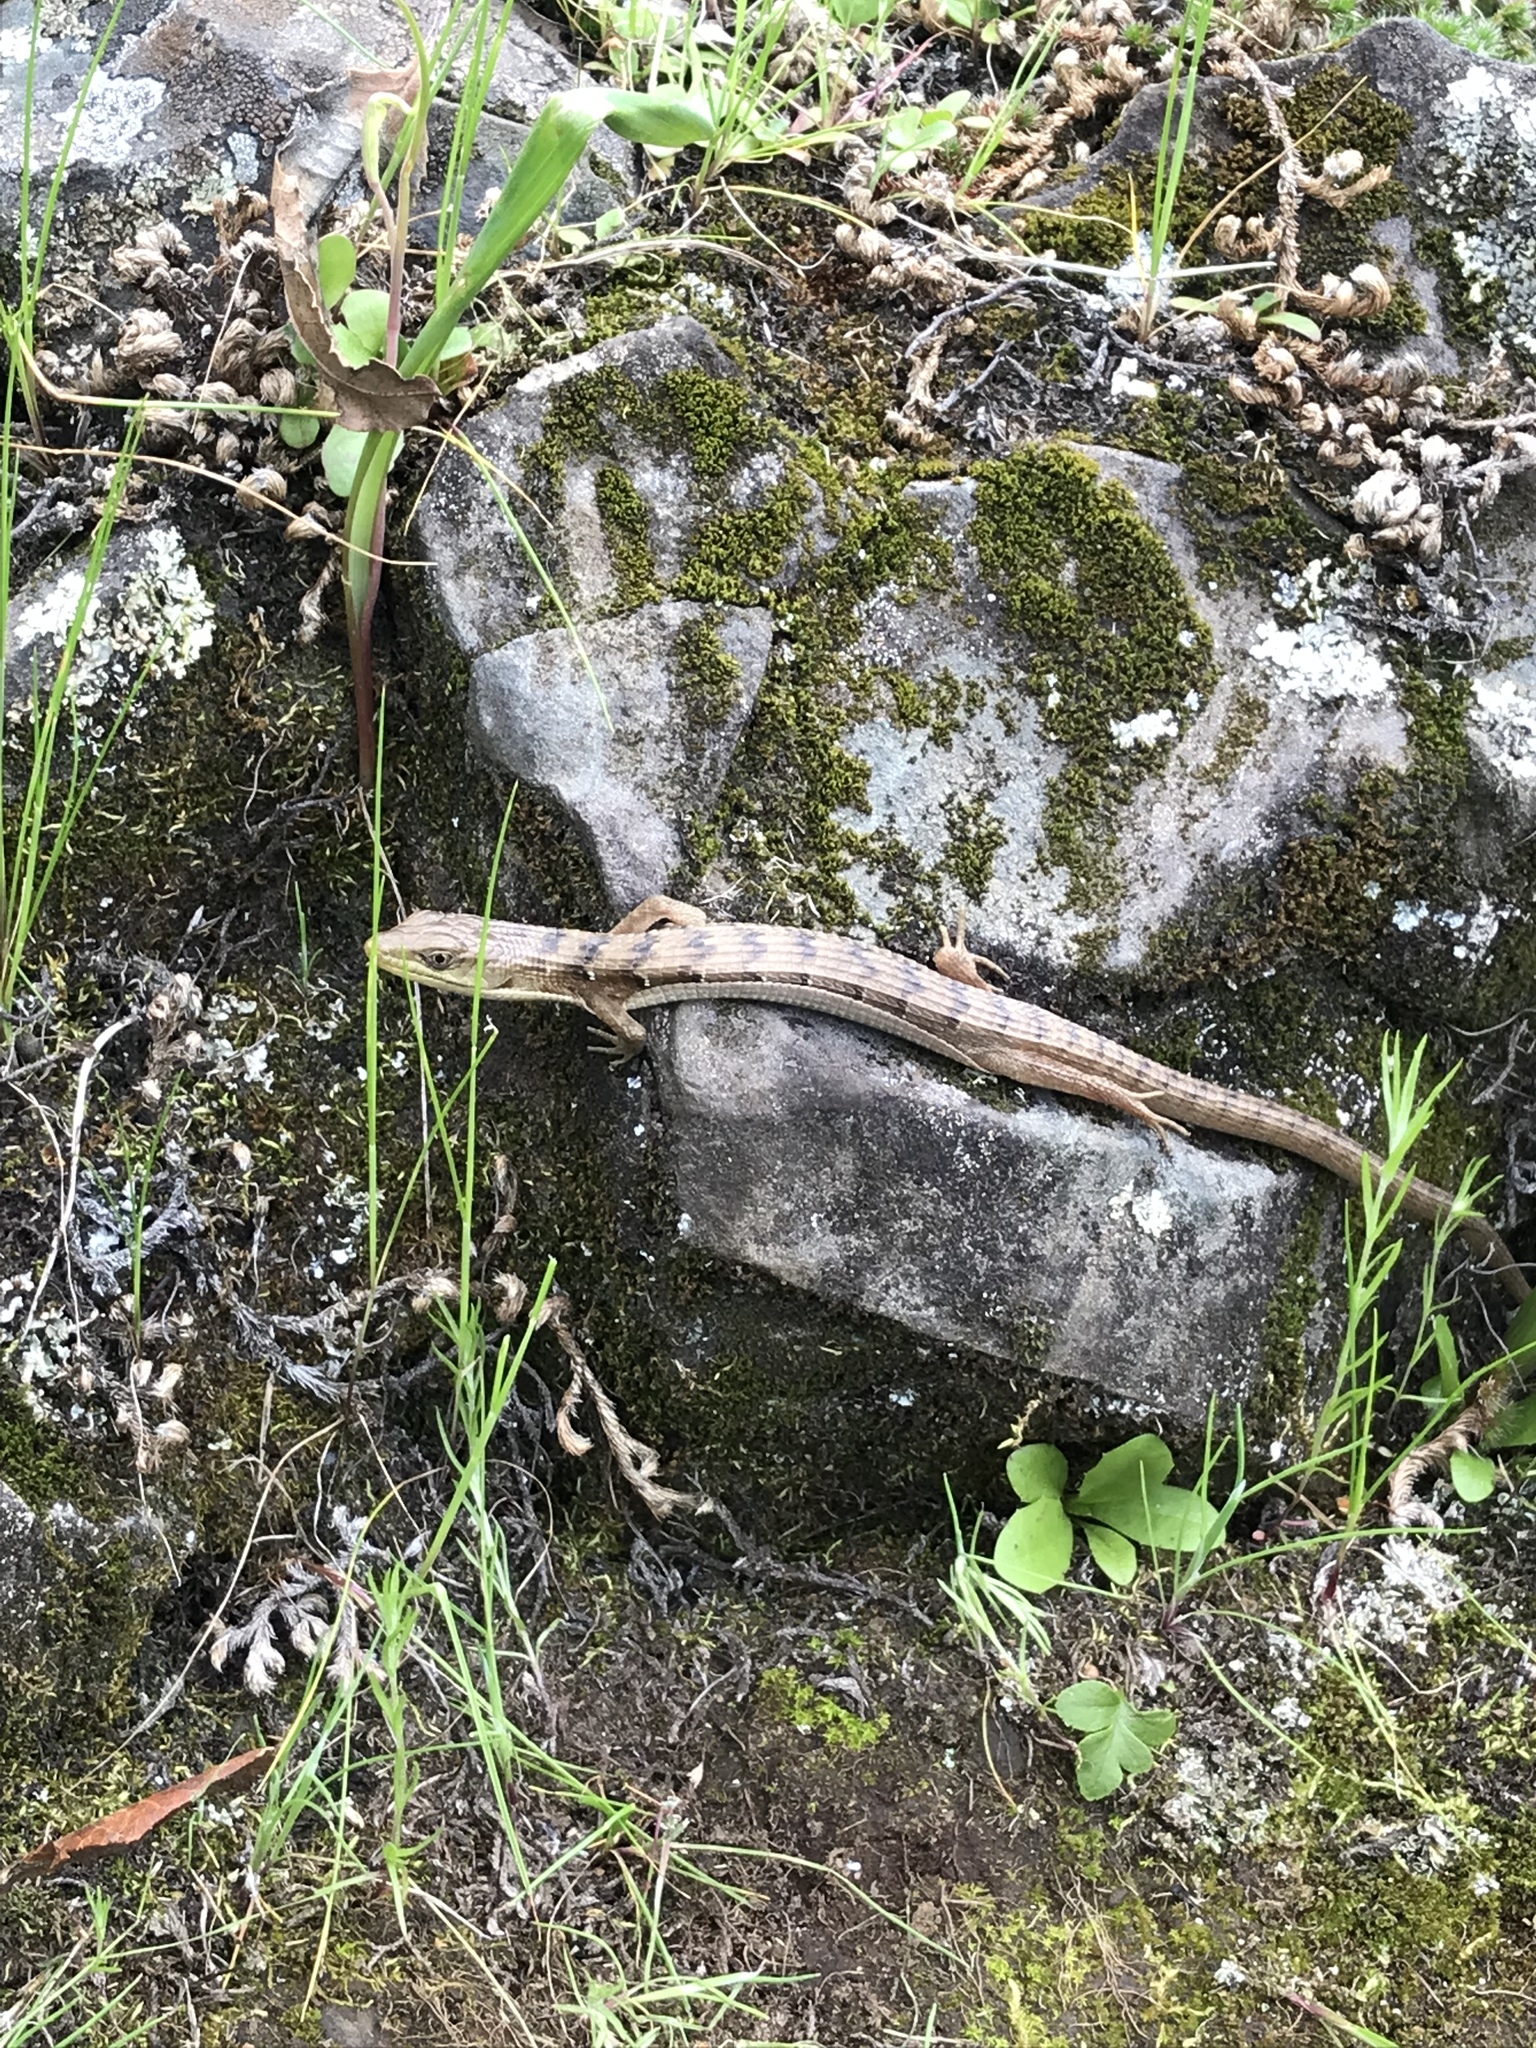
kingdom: Animalia
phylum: Chordata
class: Squamata
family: Anguidae
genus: Elgaria
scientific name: Elgaria multicarinata
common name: Southern alligator lizard
